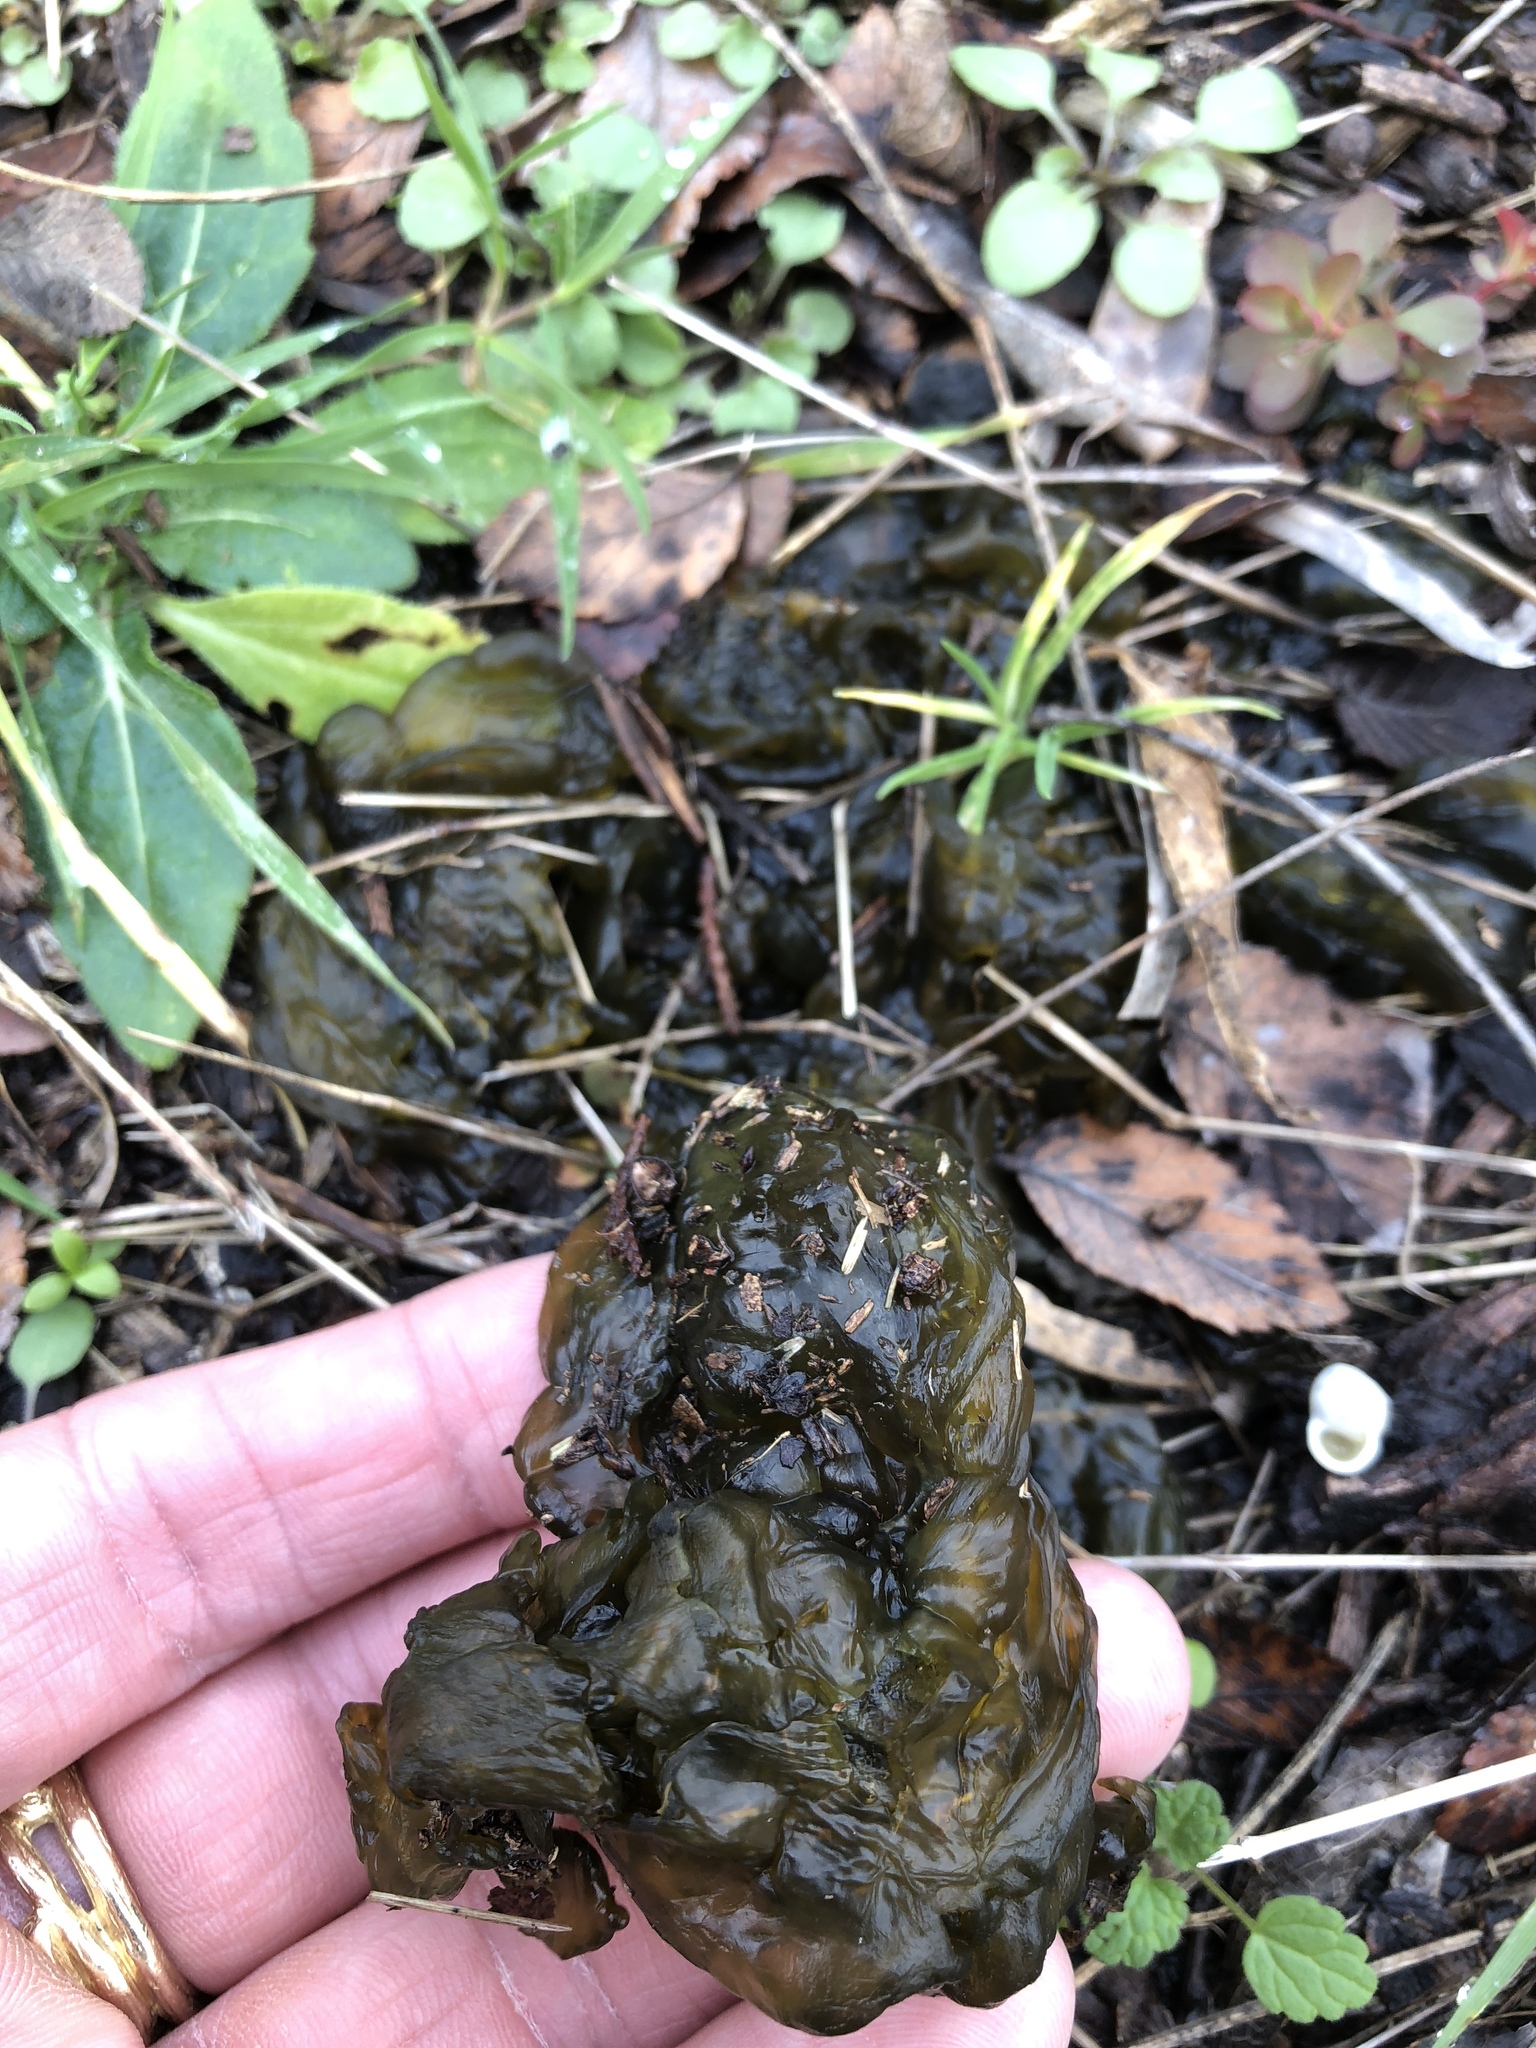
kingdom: Bacteria
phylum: Cyanobacteria
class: Cyanobacteriia
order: Cyanobacteriales
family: Nostocaceae
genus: Nostoc
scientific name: Nostoc commune
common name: Star jelly
